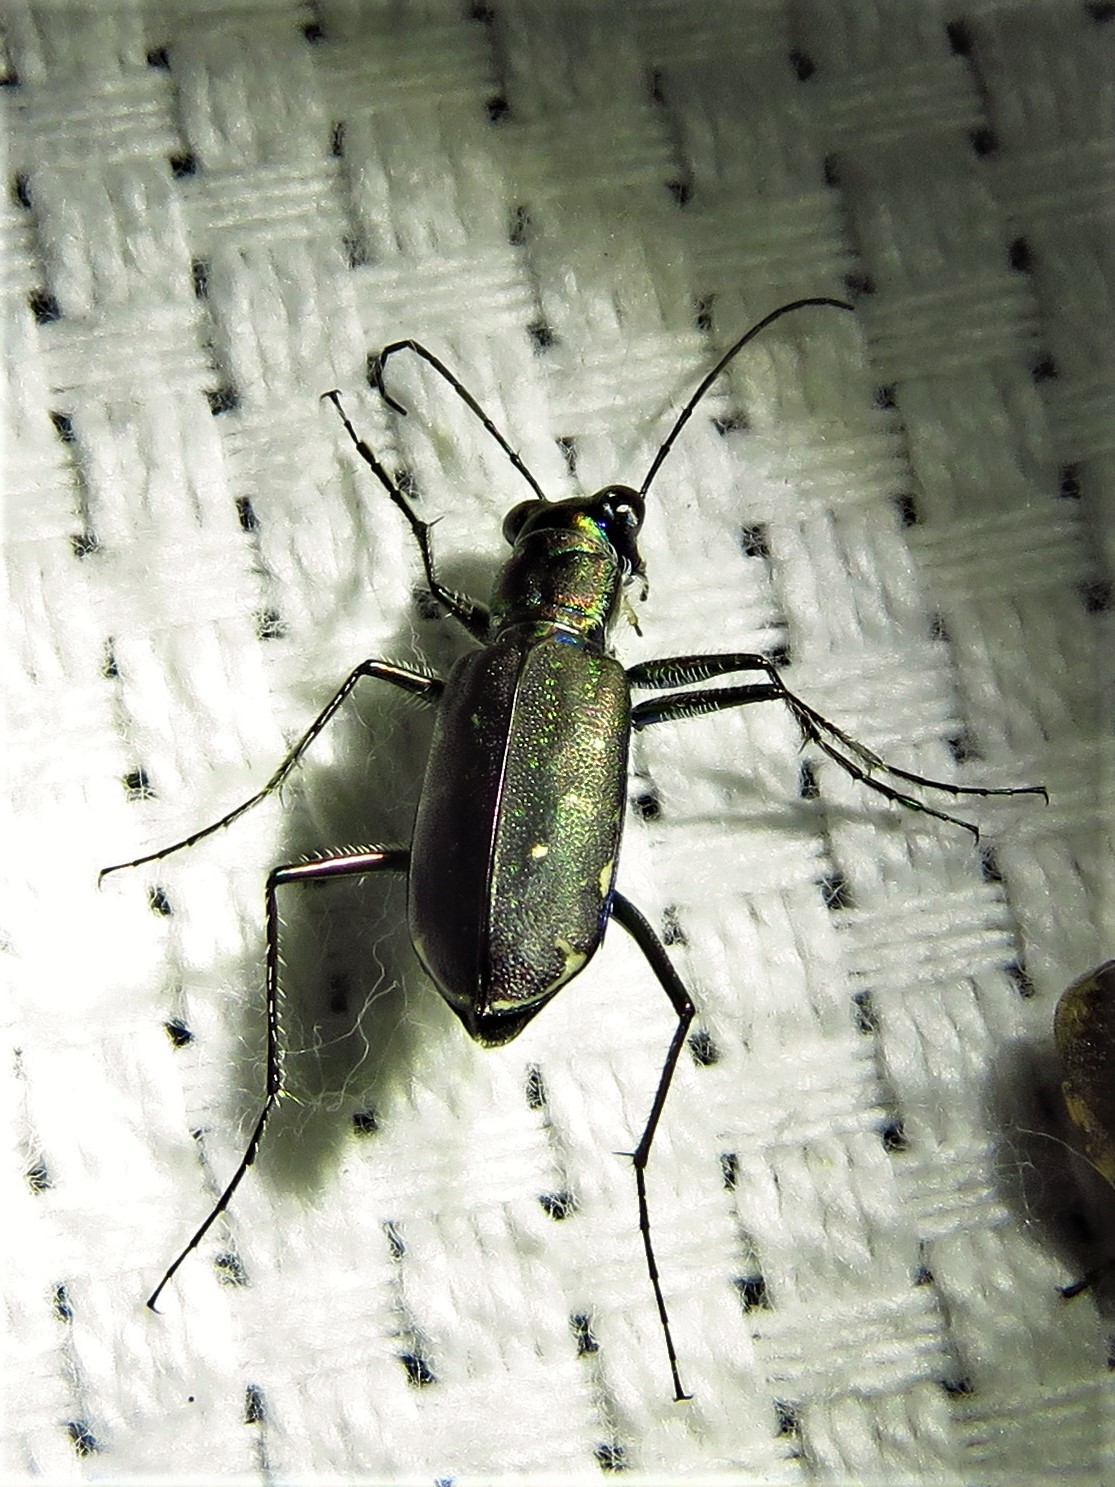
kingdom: Animalia
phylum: Arthropoda
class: Insecta
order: Coleoptera
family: Carabidae
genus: Cicindela
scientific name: Cicindela punctulata
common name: Punctured tiger beetle
